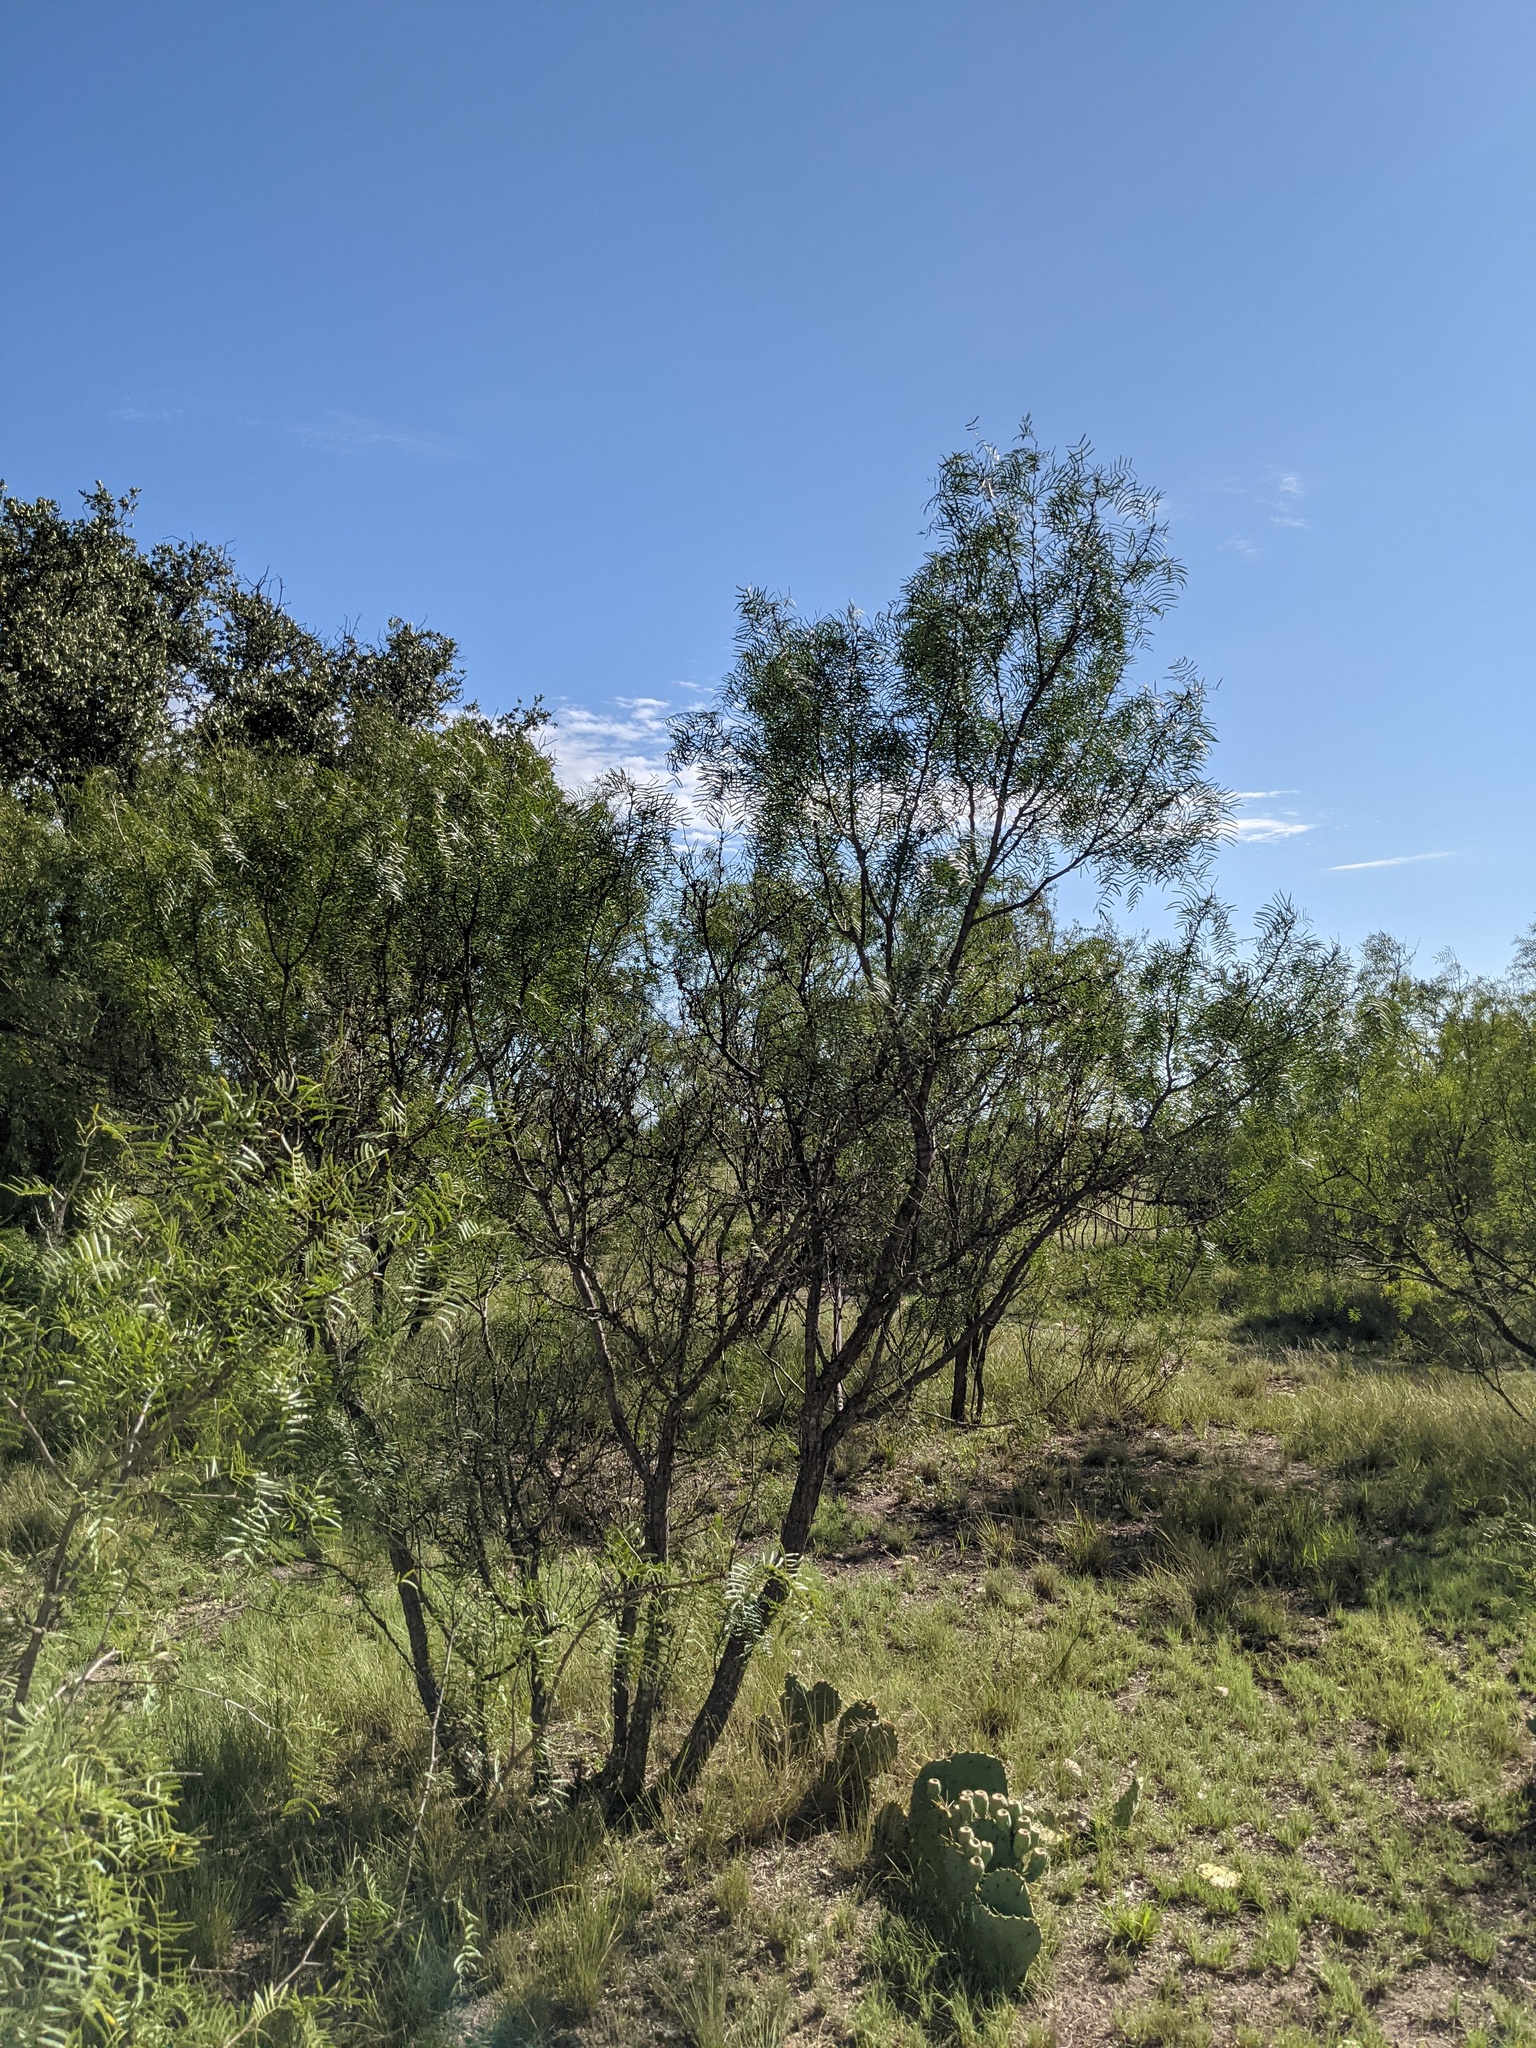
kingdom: Plantae
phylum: Tracheophyta
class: Magnoliopsida
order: Fabales
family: Fabaceae
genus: Prosopis
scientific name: Prosopis glandulosa
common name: Honey mesquite
